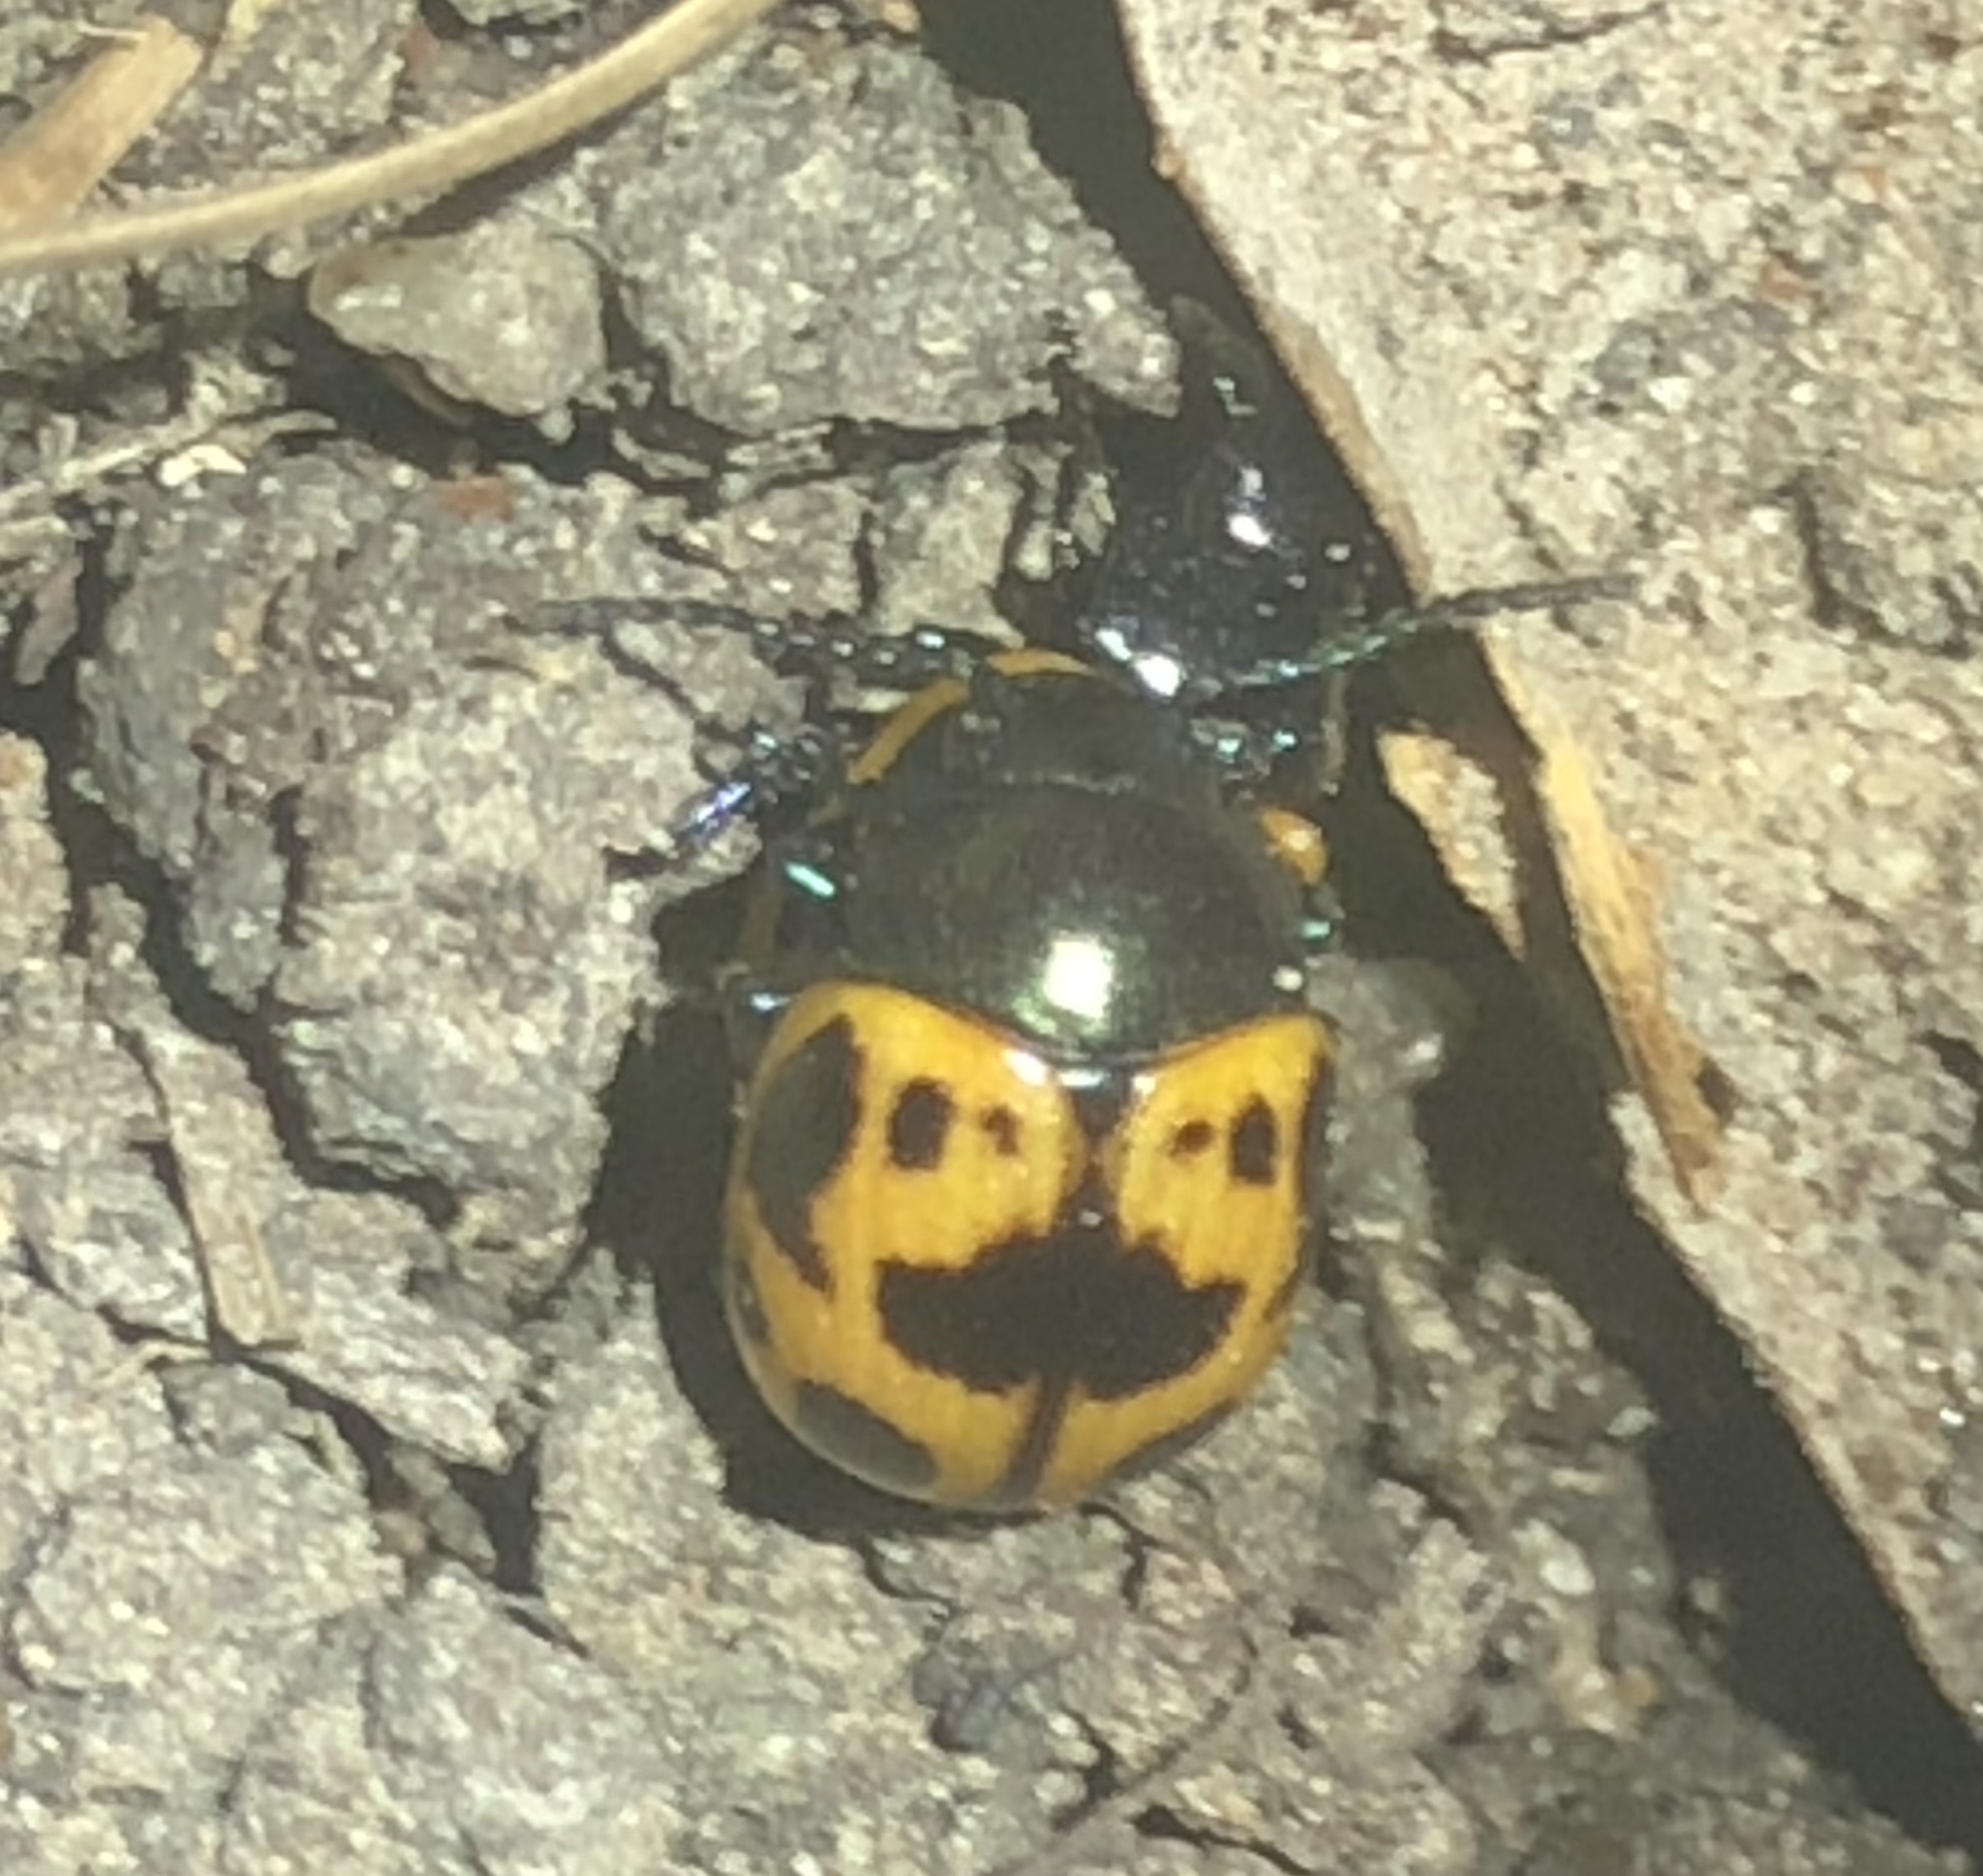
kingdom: Animalia
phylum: Arthropoda
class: Insecta
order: Coleoptera
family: Chrysomelidae
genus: Labidomera
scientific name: Labidomera clivicollis
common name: Swamp milkweed leaf beetle
